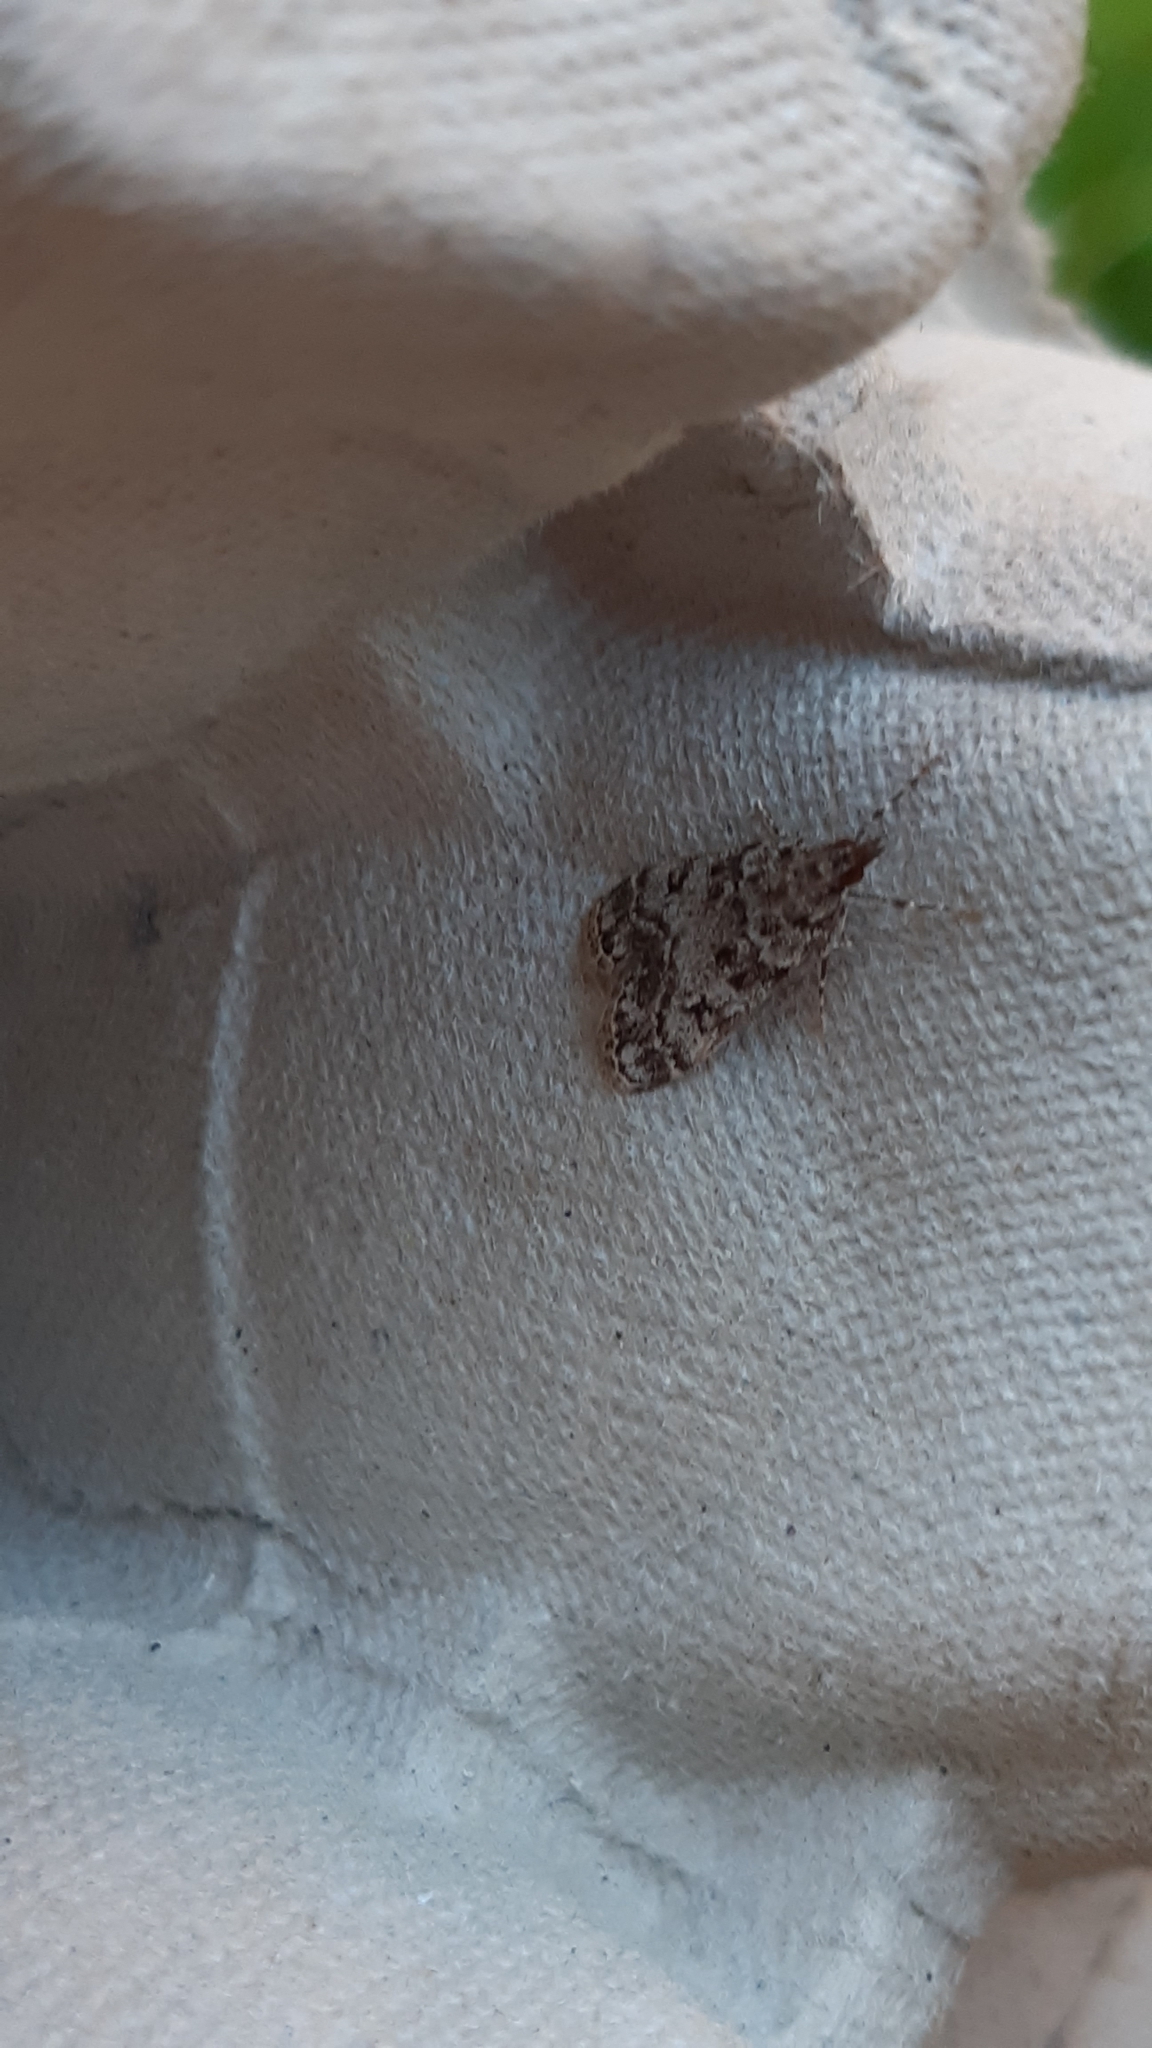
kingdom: Animalia
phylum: Arthropoda
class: Insecta
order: Lepidoptera
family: Crambidae
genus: Eudonia
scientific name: Eudonia lacustrata
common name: Little grey
